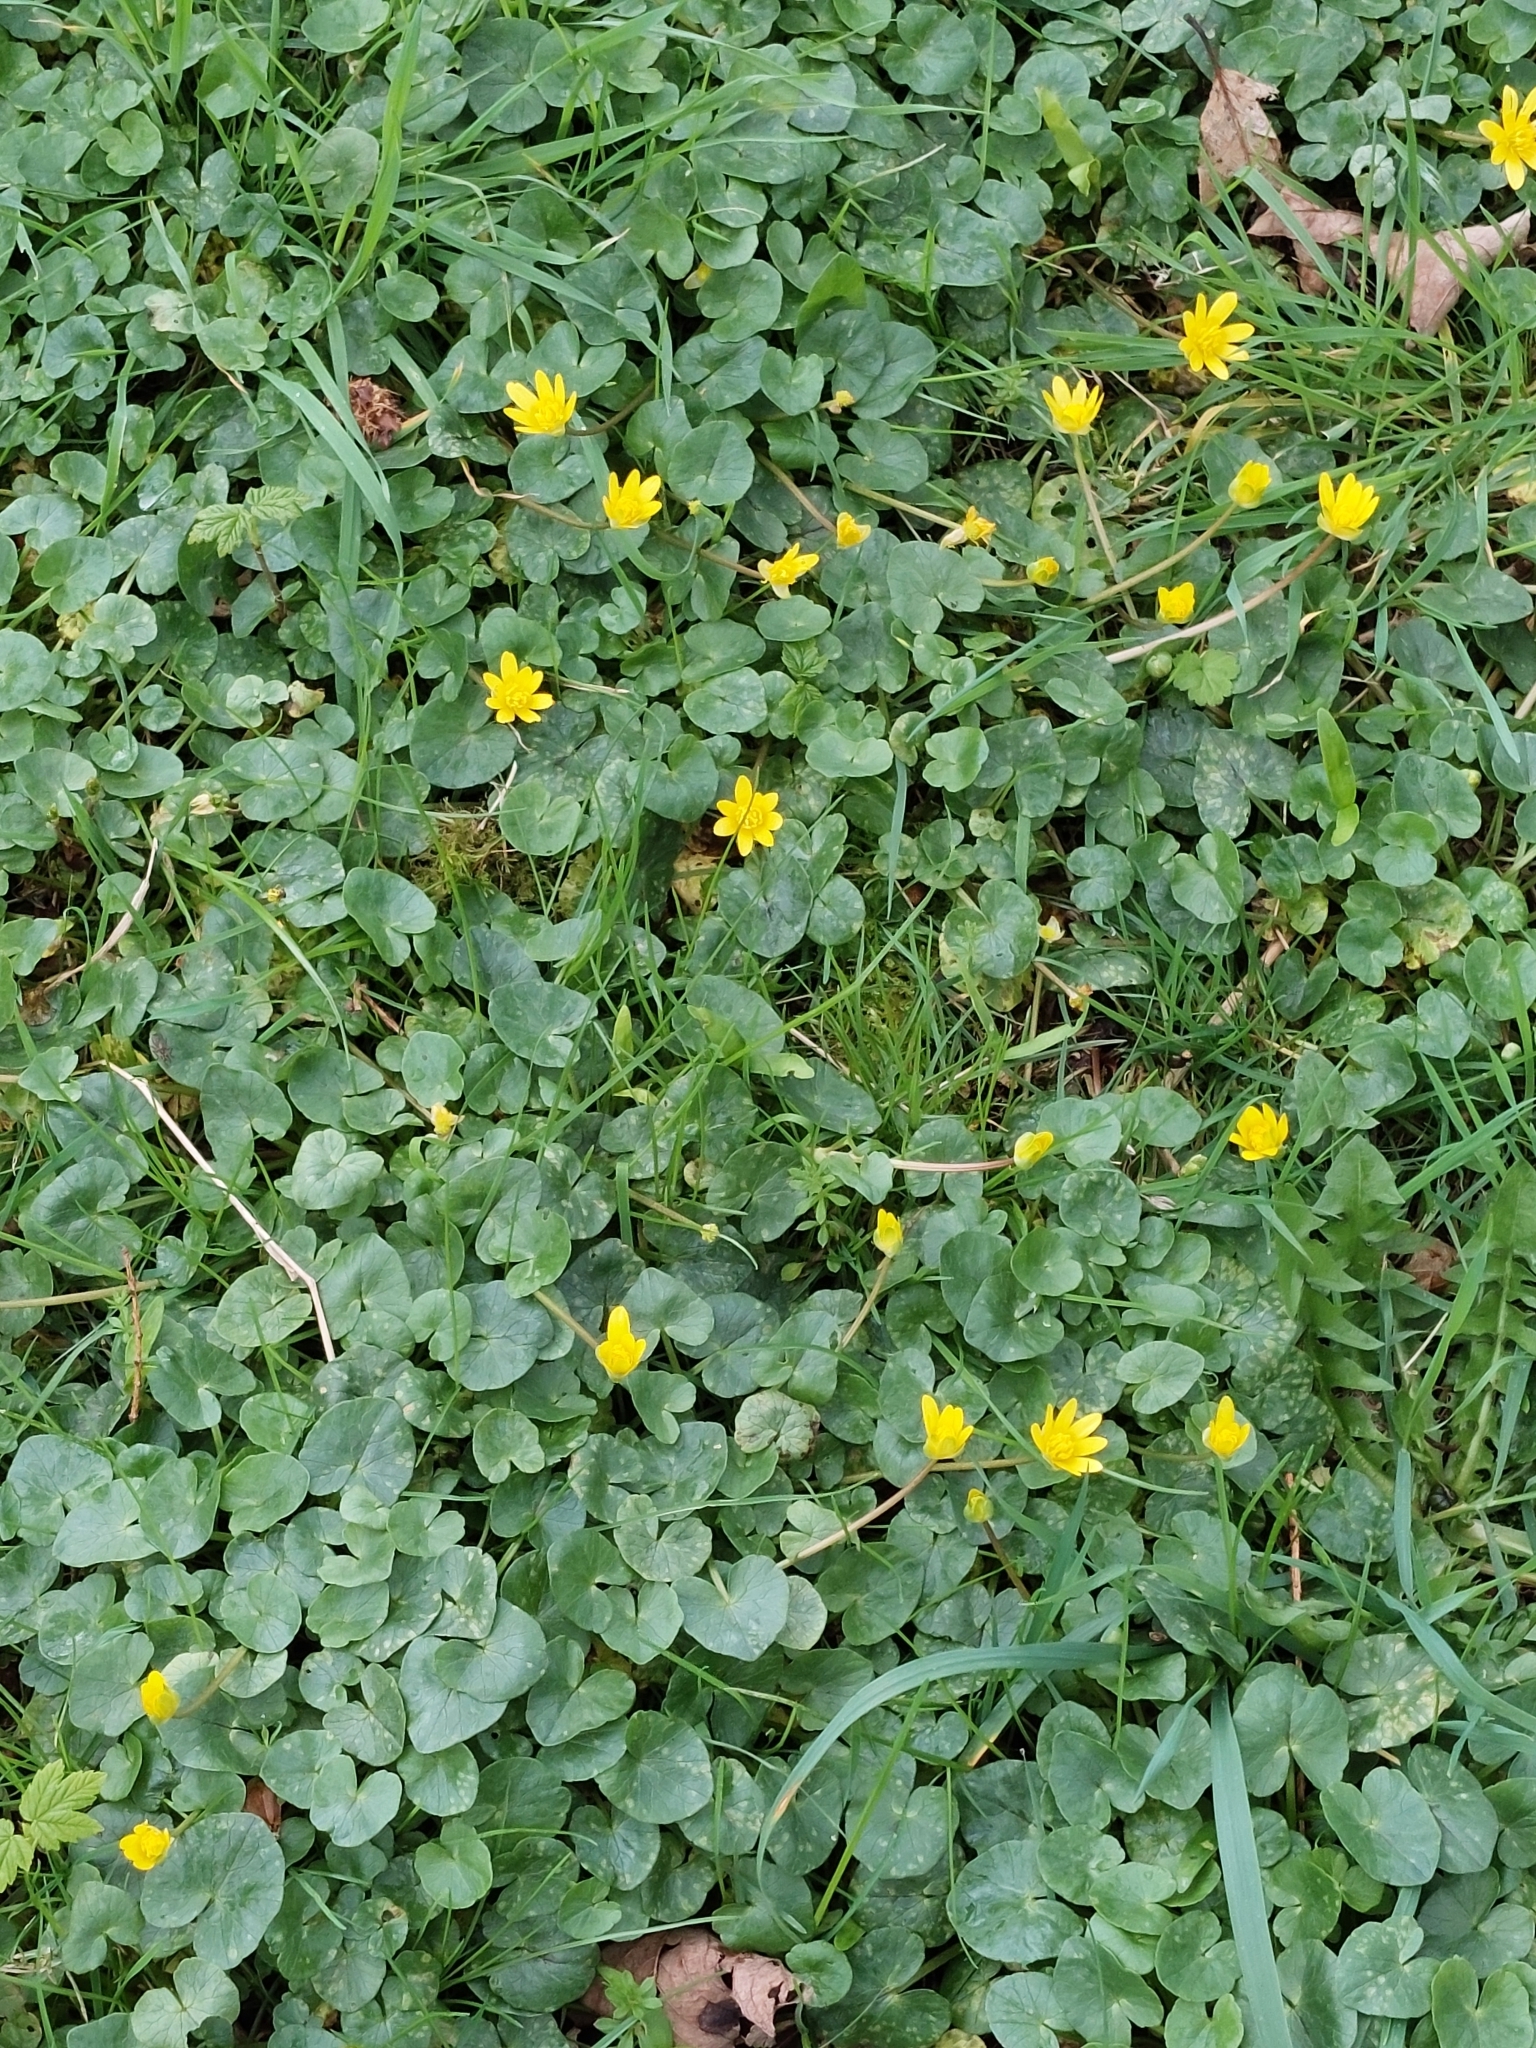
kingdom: Plantae
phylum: Tracheophyta
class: Magnoliopsida
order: Ranunculales
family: Ranunculaceae
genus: Ficaria
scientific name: Ficaria verna
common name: Lesser celandine
